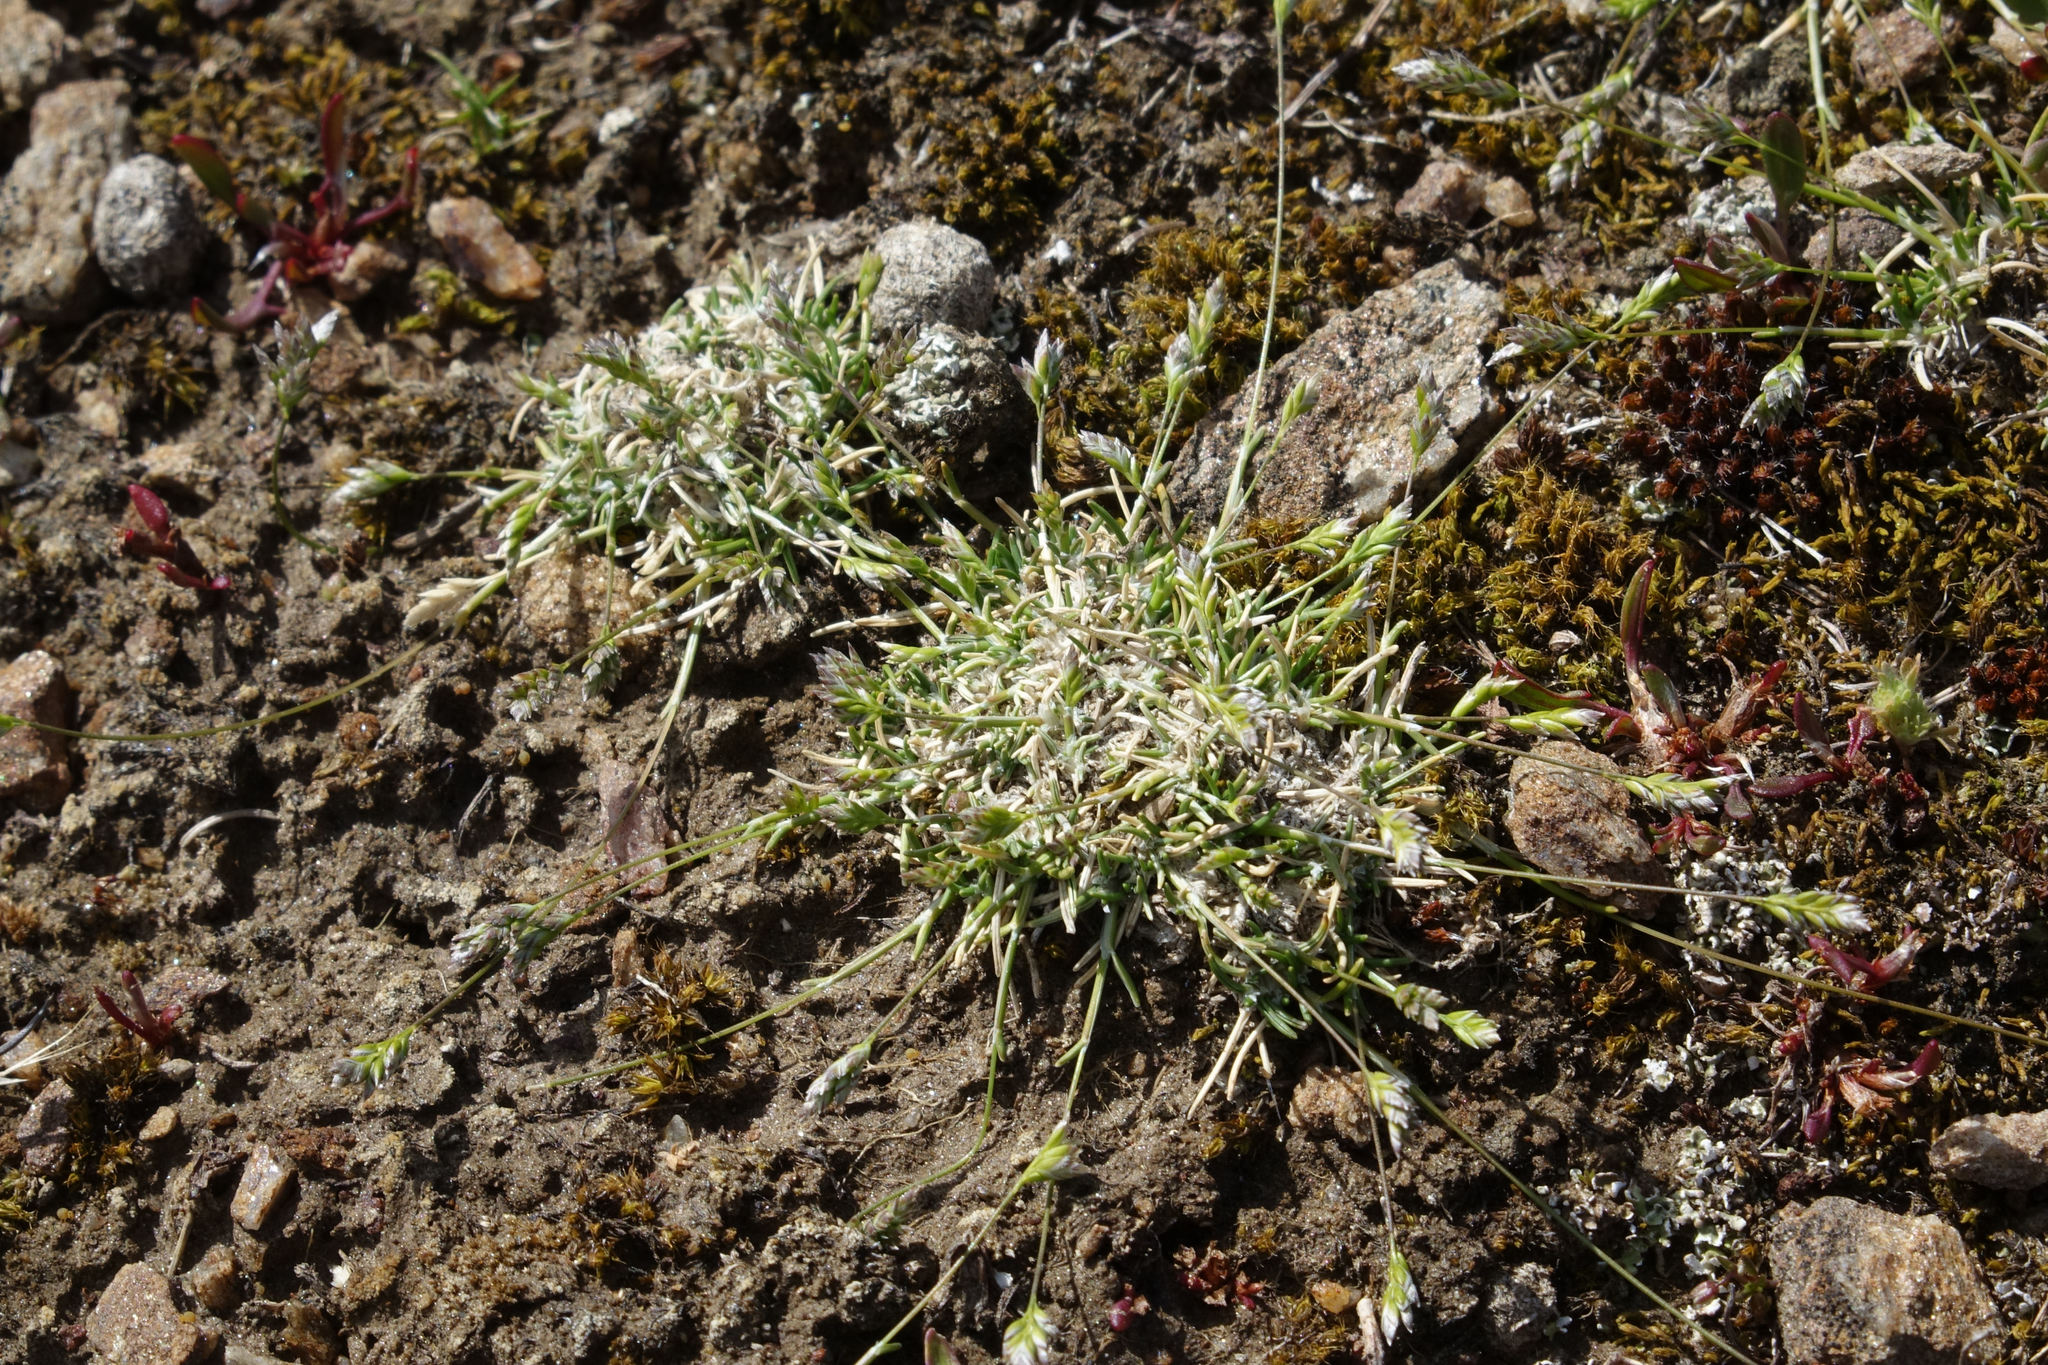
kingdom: Plantae
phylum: Tracheophyta
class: Liliopsida
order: Poales
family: Poaceae
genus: Poa
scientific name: Poa maniototo
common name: Desert poa
